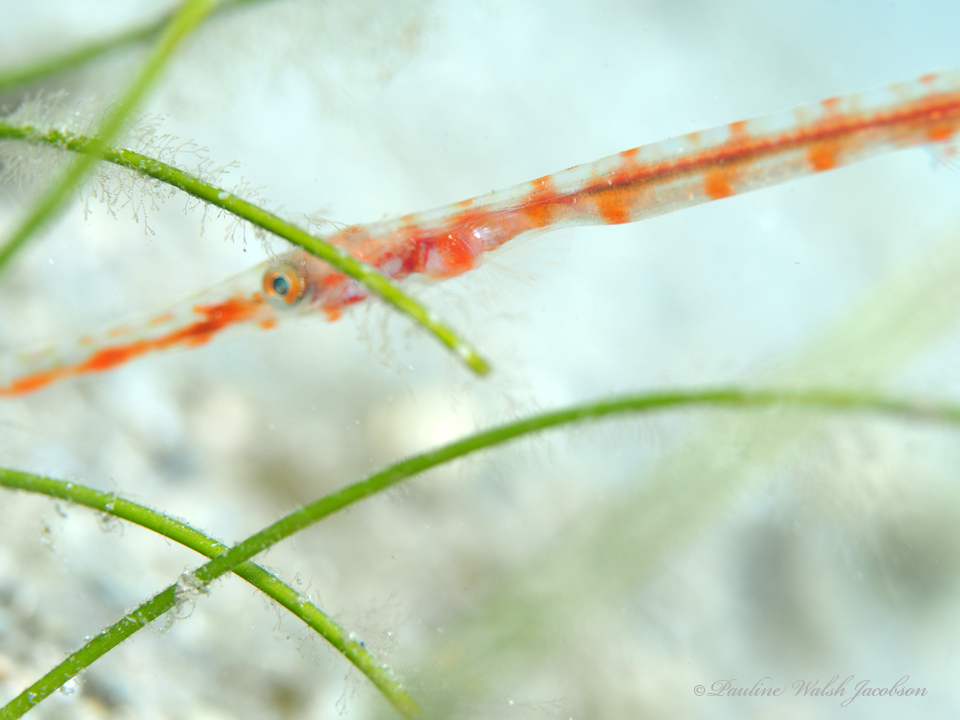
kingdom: Animalia
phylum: Chordata
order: Syngnathiformes
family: Aulostomidae
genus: Aulostomus
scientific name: Aulostomus maculatus
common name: West atlantic trumpetfish
